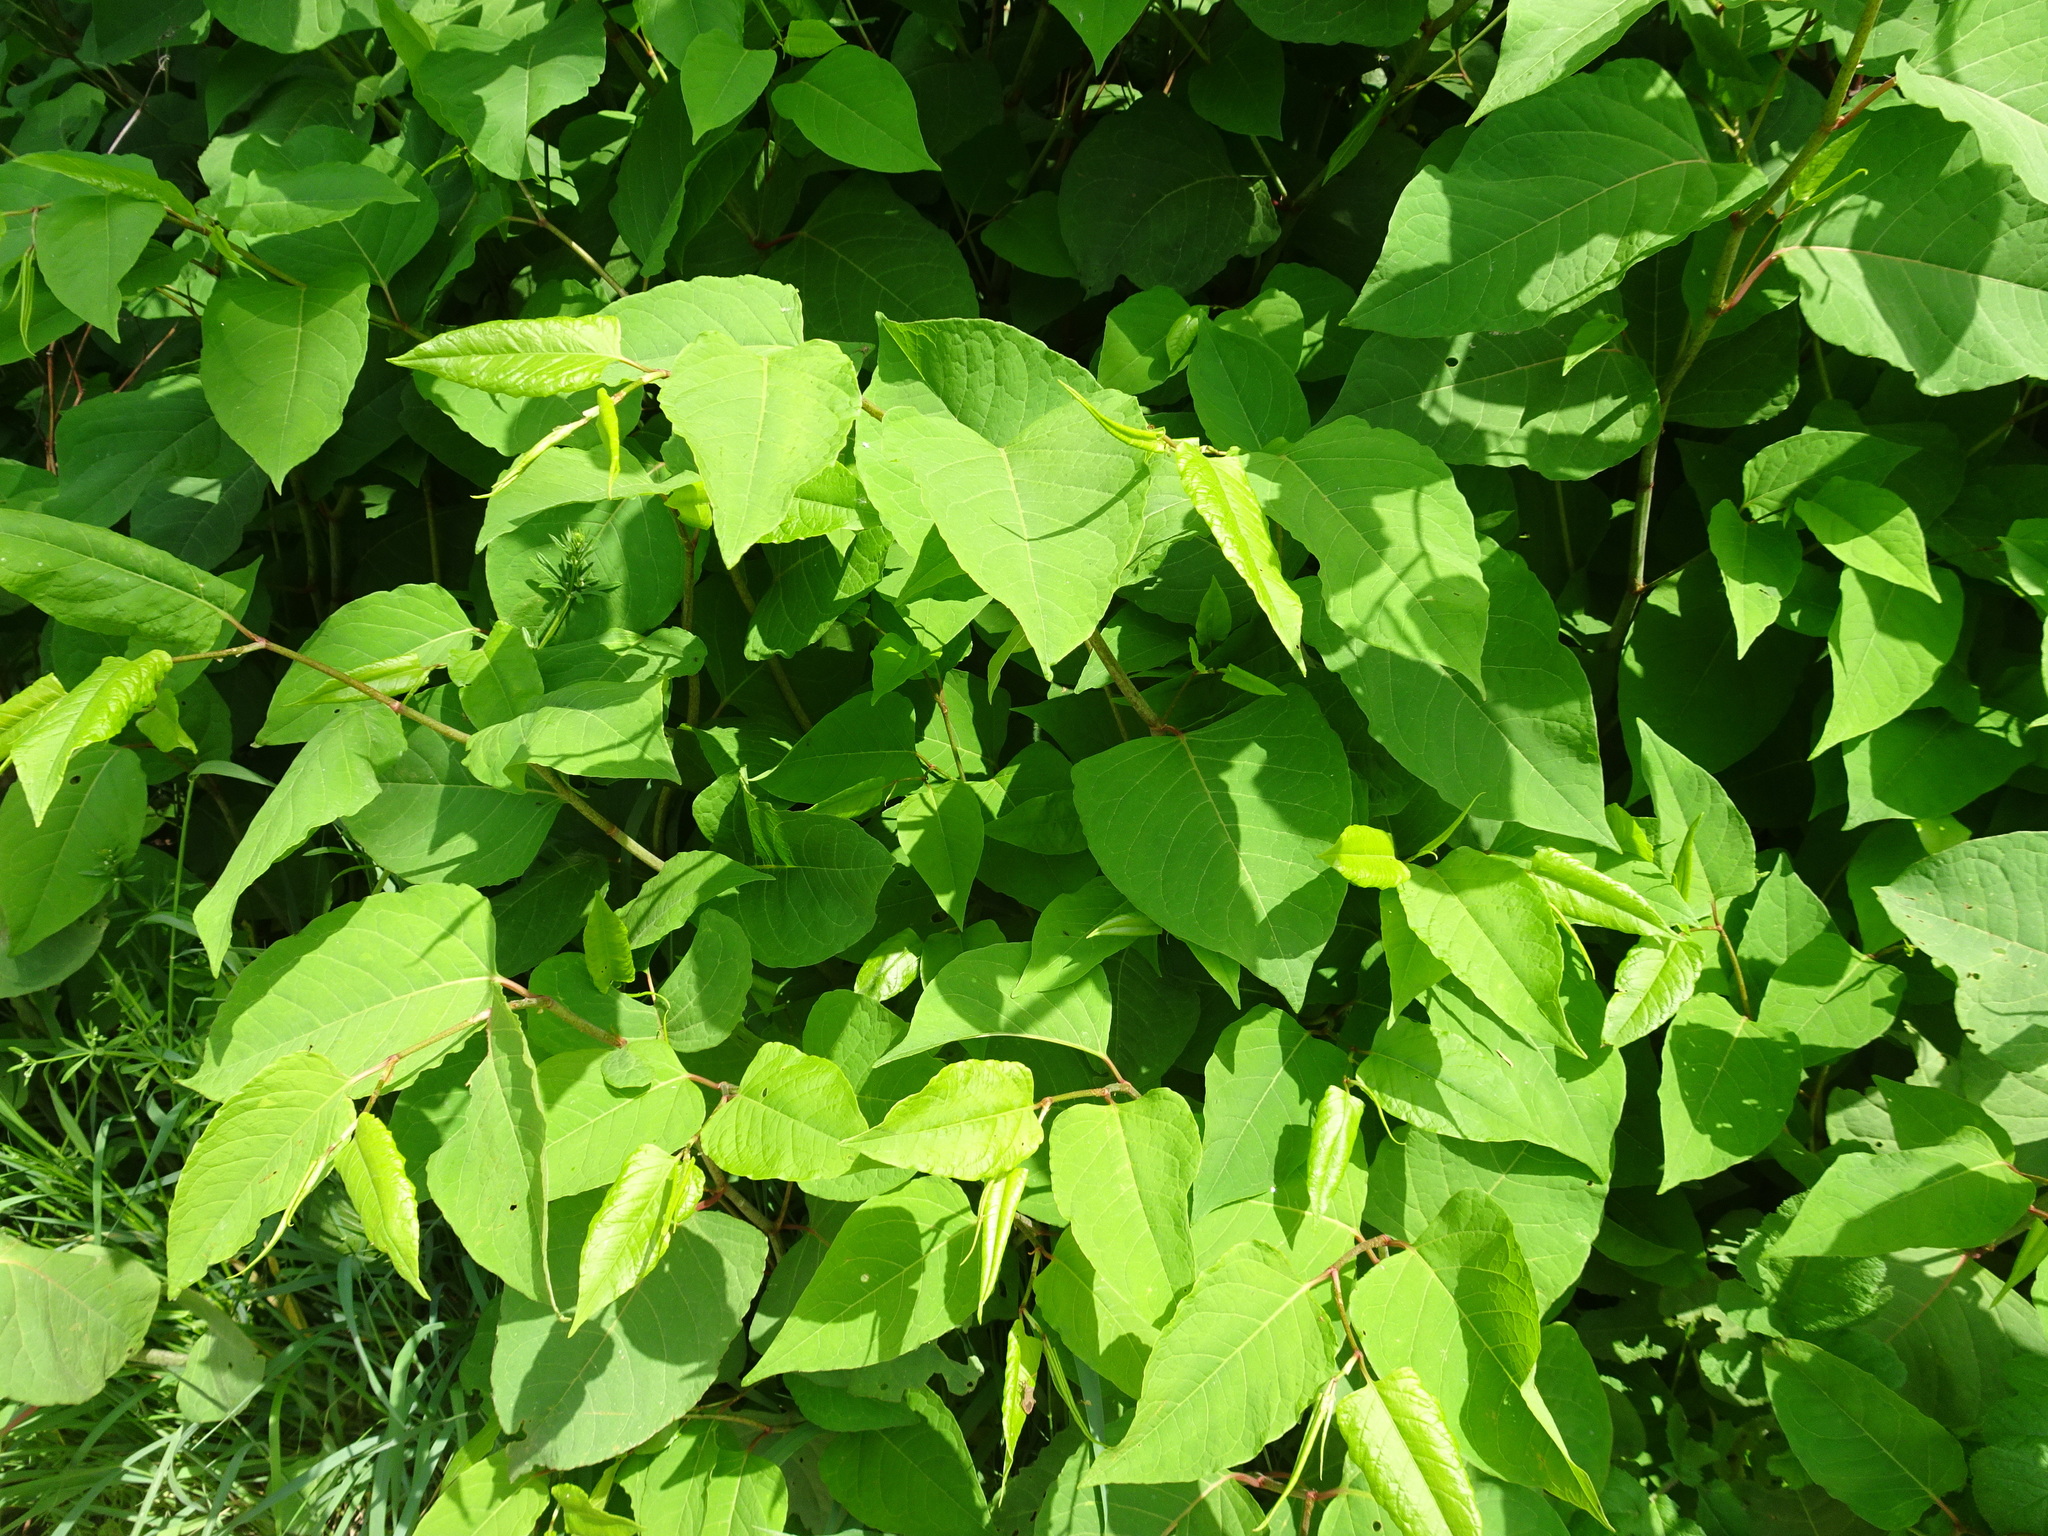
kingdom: Plantae
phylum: Tracheophyta
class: Magnoliopsida
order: Caryophyllales
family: Polygonaceae
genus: Reynoutria
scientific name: Reynoutria japonica
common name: Japanese knotweed
